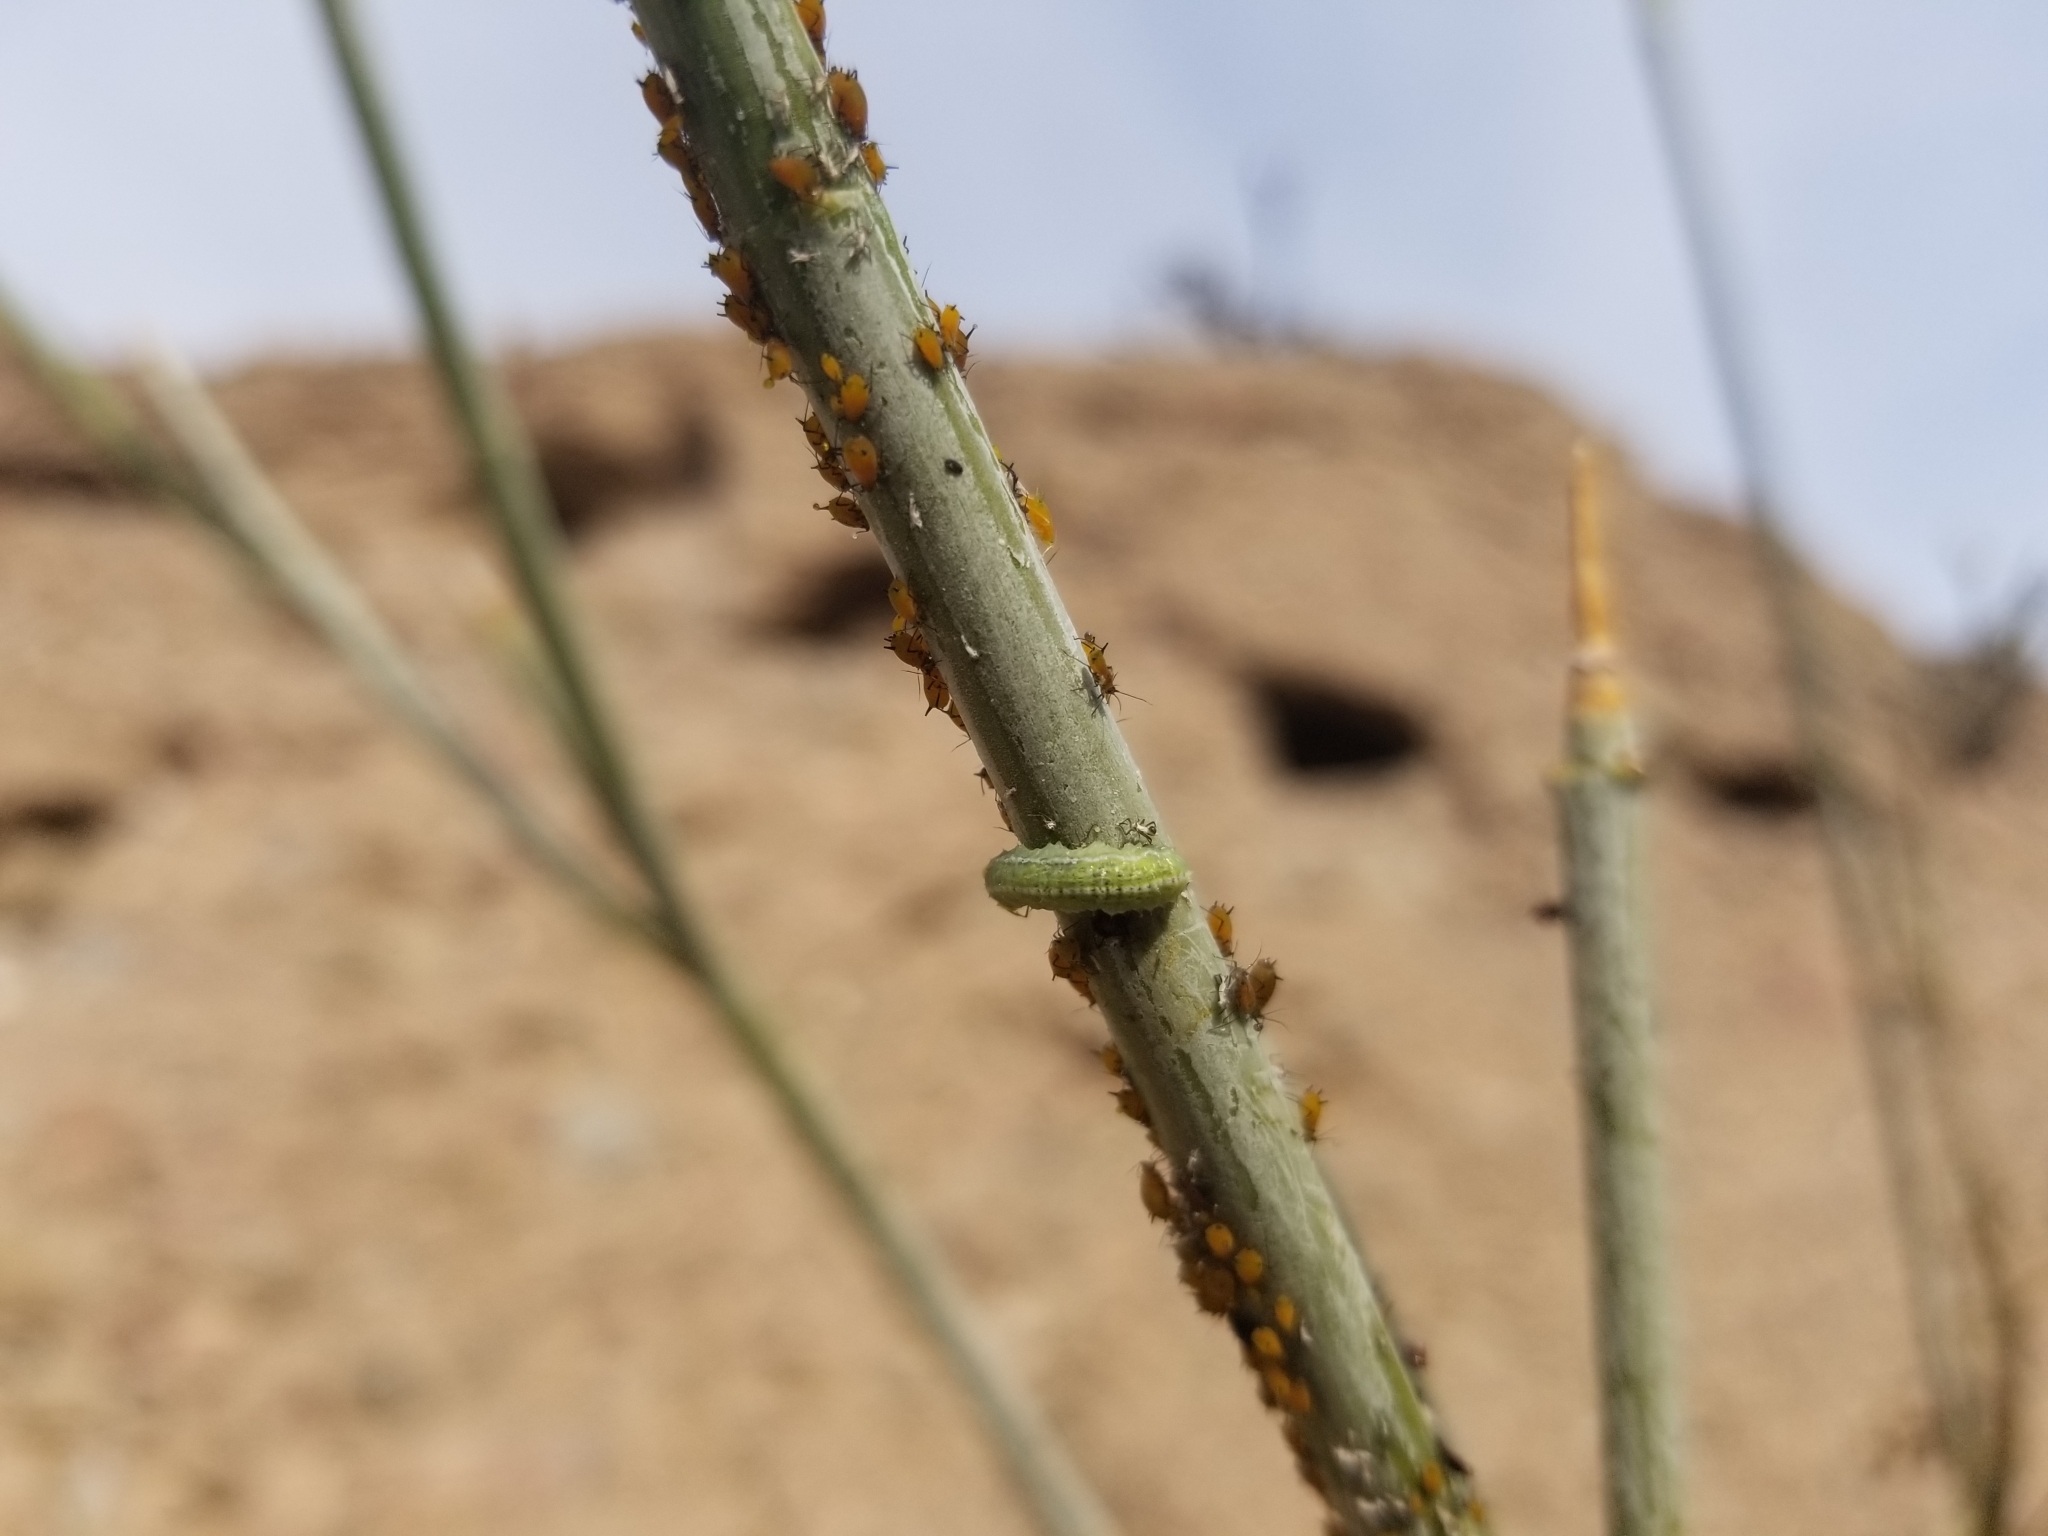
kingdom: Animalia
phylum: Arthropoda
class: Insecta
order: Hemiptera
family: Aphididae
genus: Aphis
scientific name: Aphis nerii
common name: Oleander aphid
